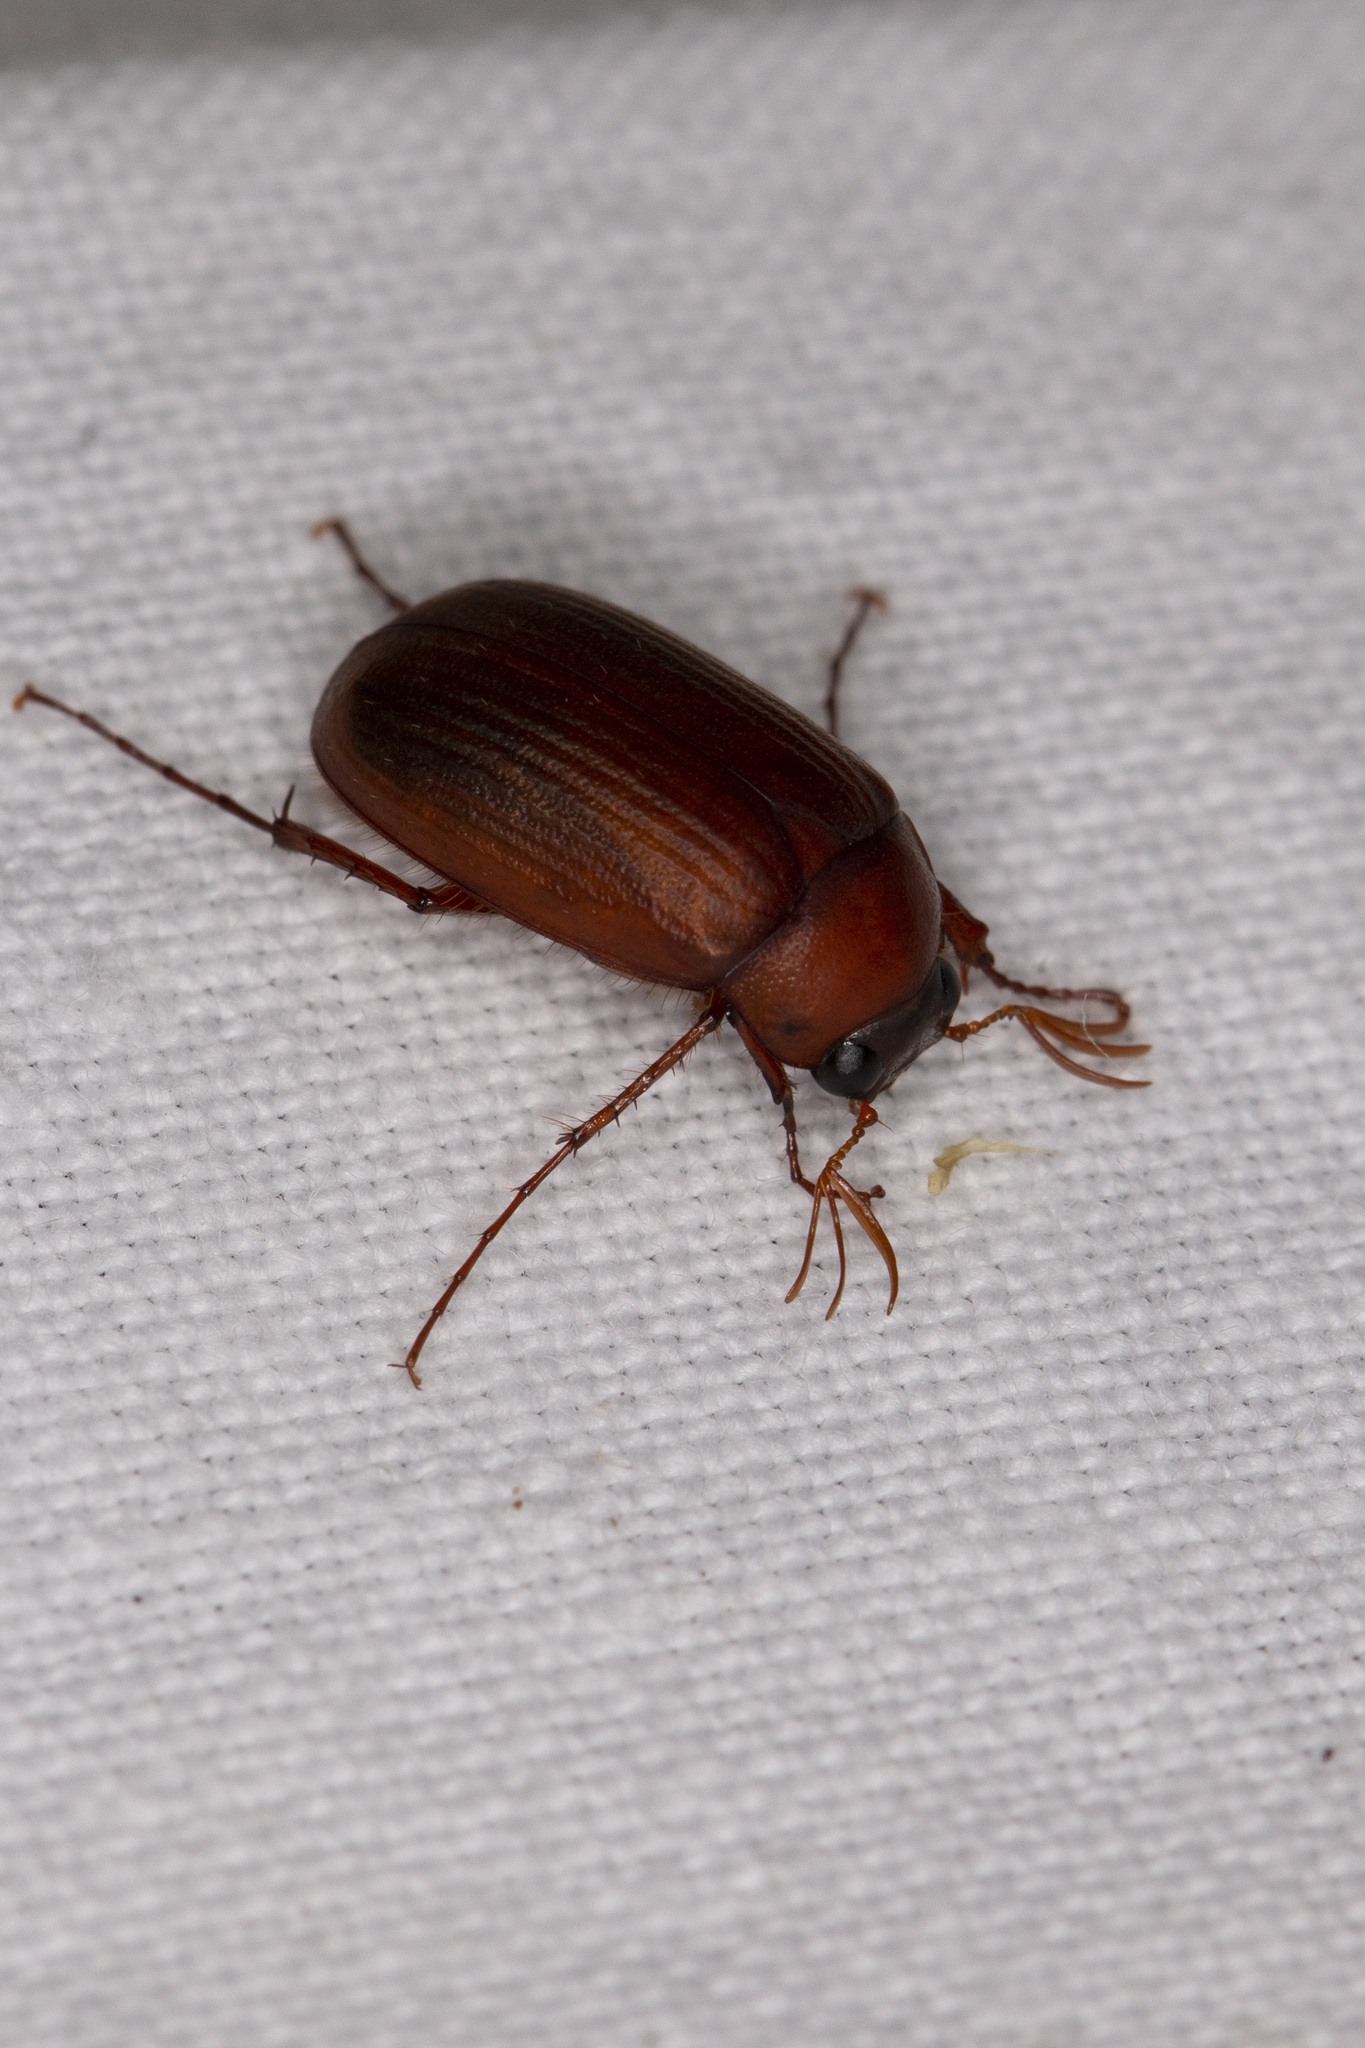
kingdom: Animalia
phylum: Arthropoda
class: Insecta
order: Coleoptera
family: Scarabaeidae
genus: Serica
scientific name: Serica brunnea
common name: Brown chafer
